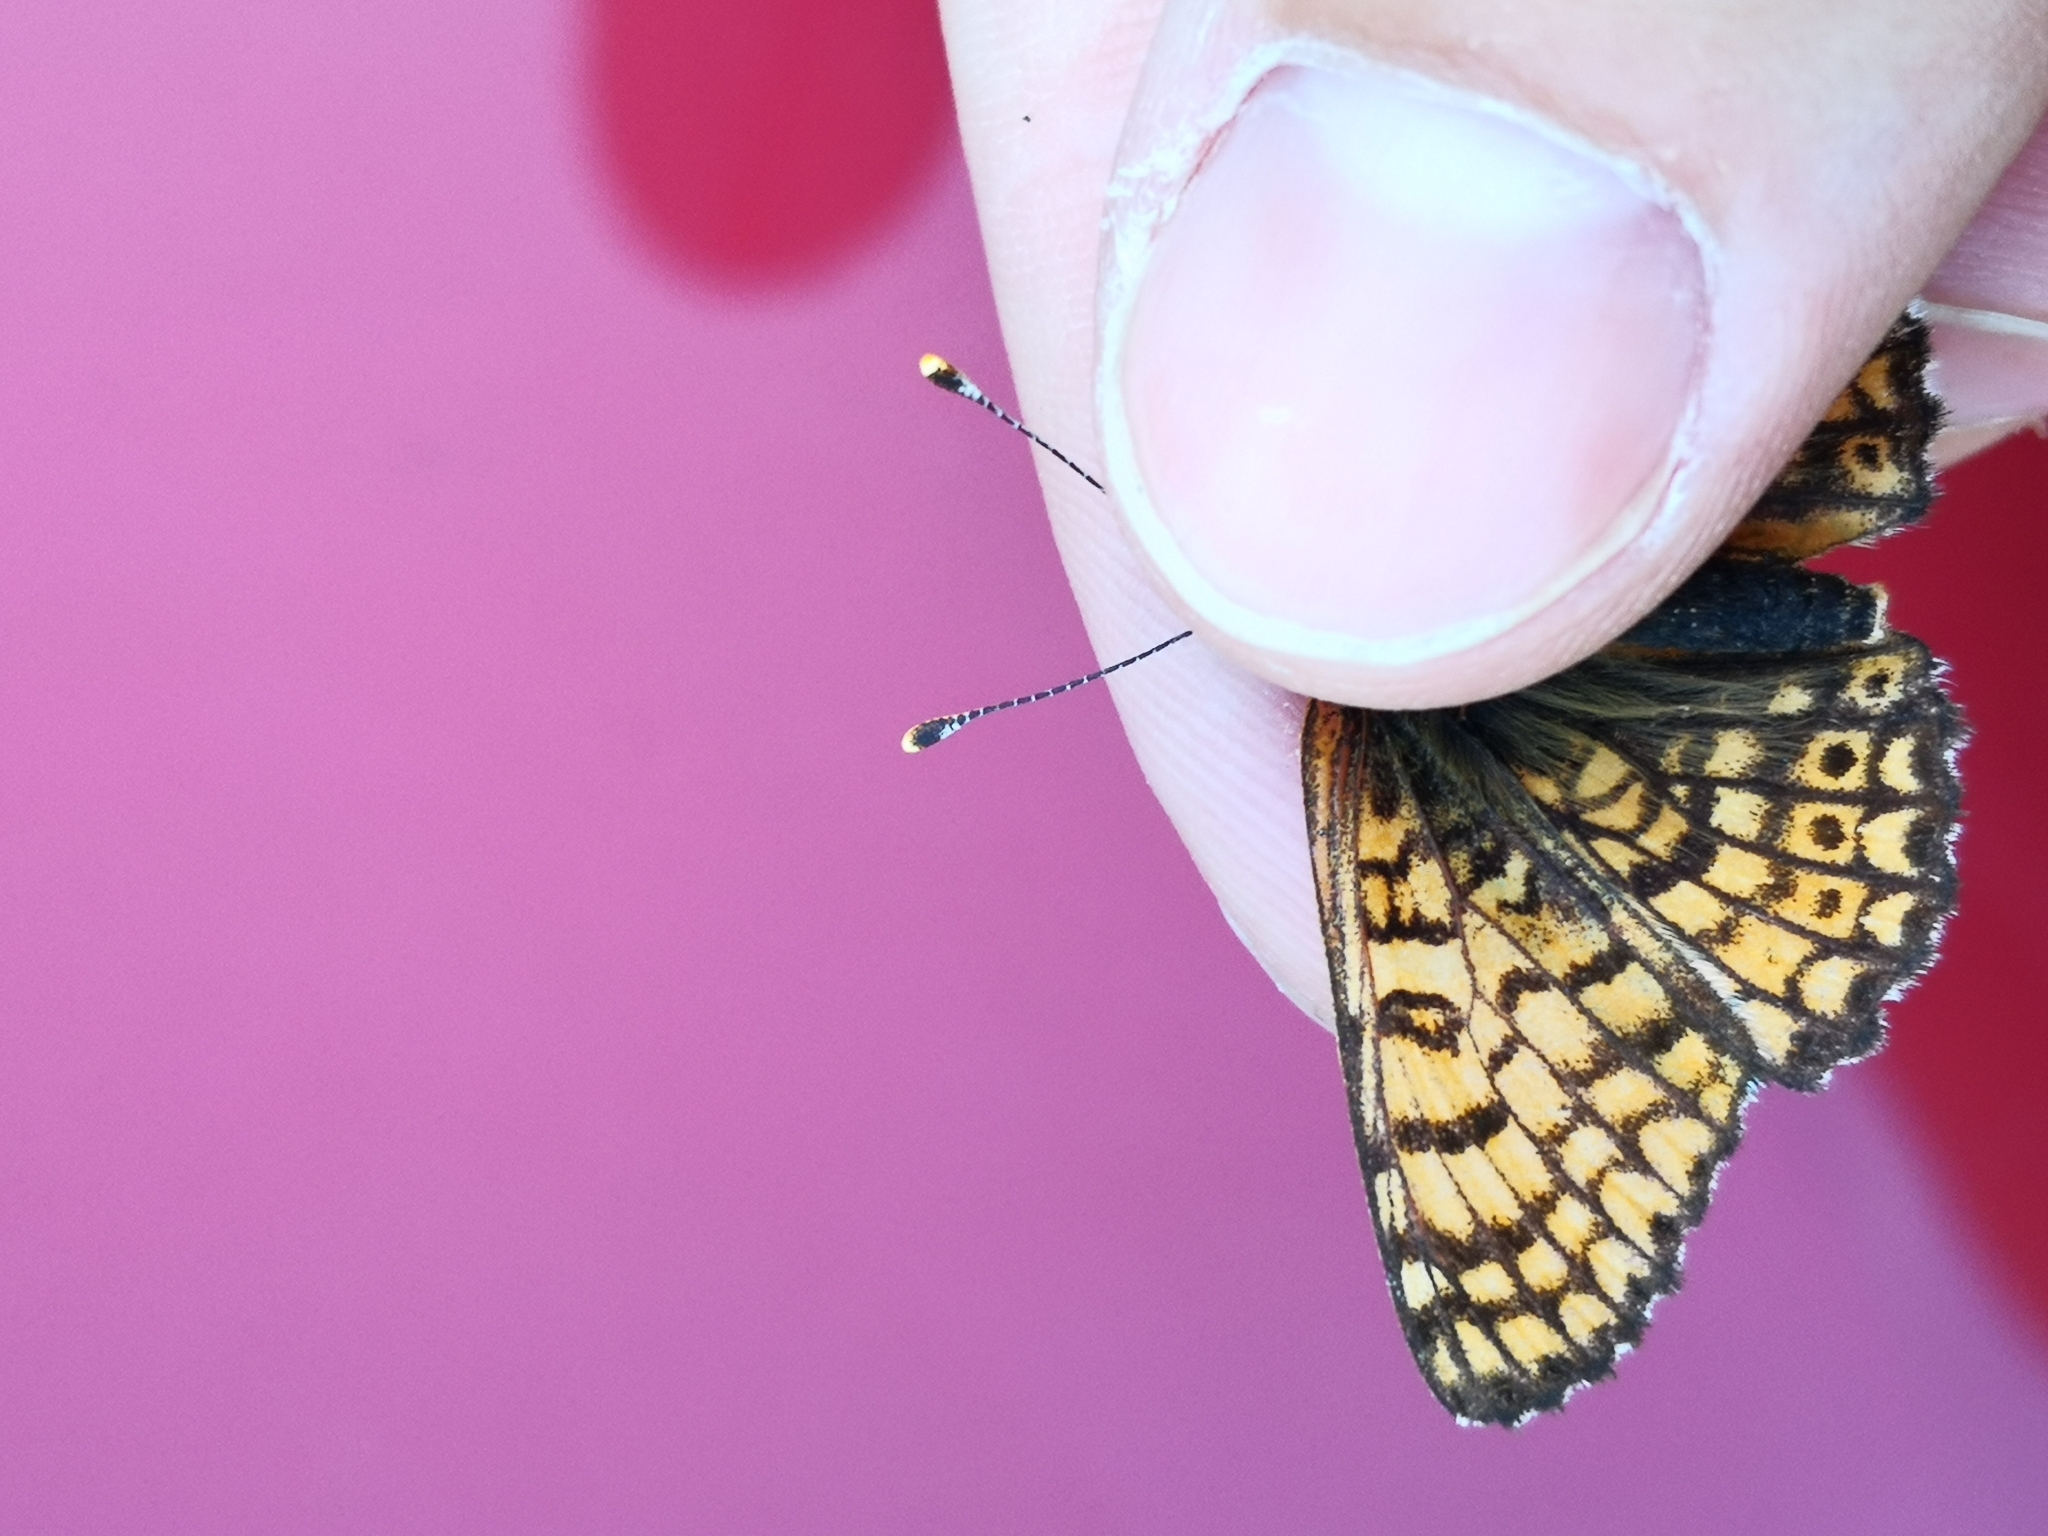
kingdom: Animalia
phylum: Arthropoda
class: Insecta
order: Lepidoptera
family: Nymphalidae
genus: Melitaea
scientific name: Melitaea cinxia
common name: Glanville fritillary
